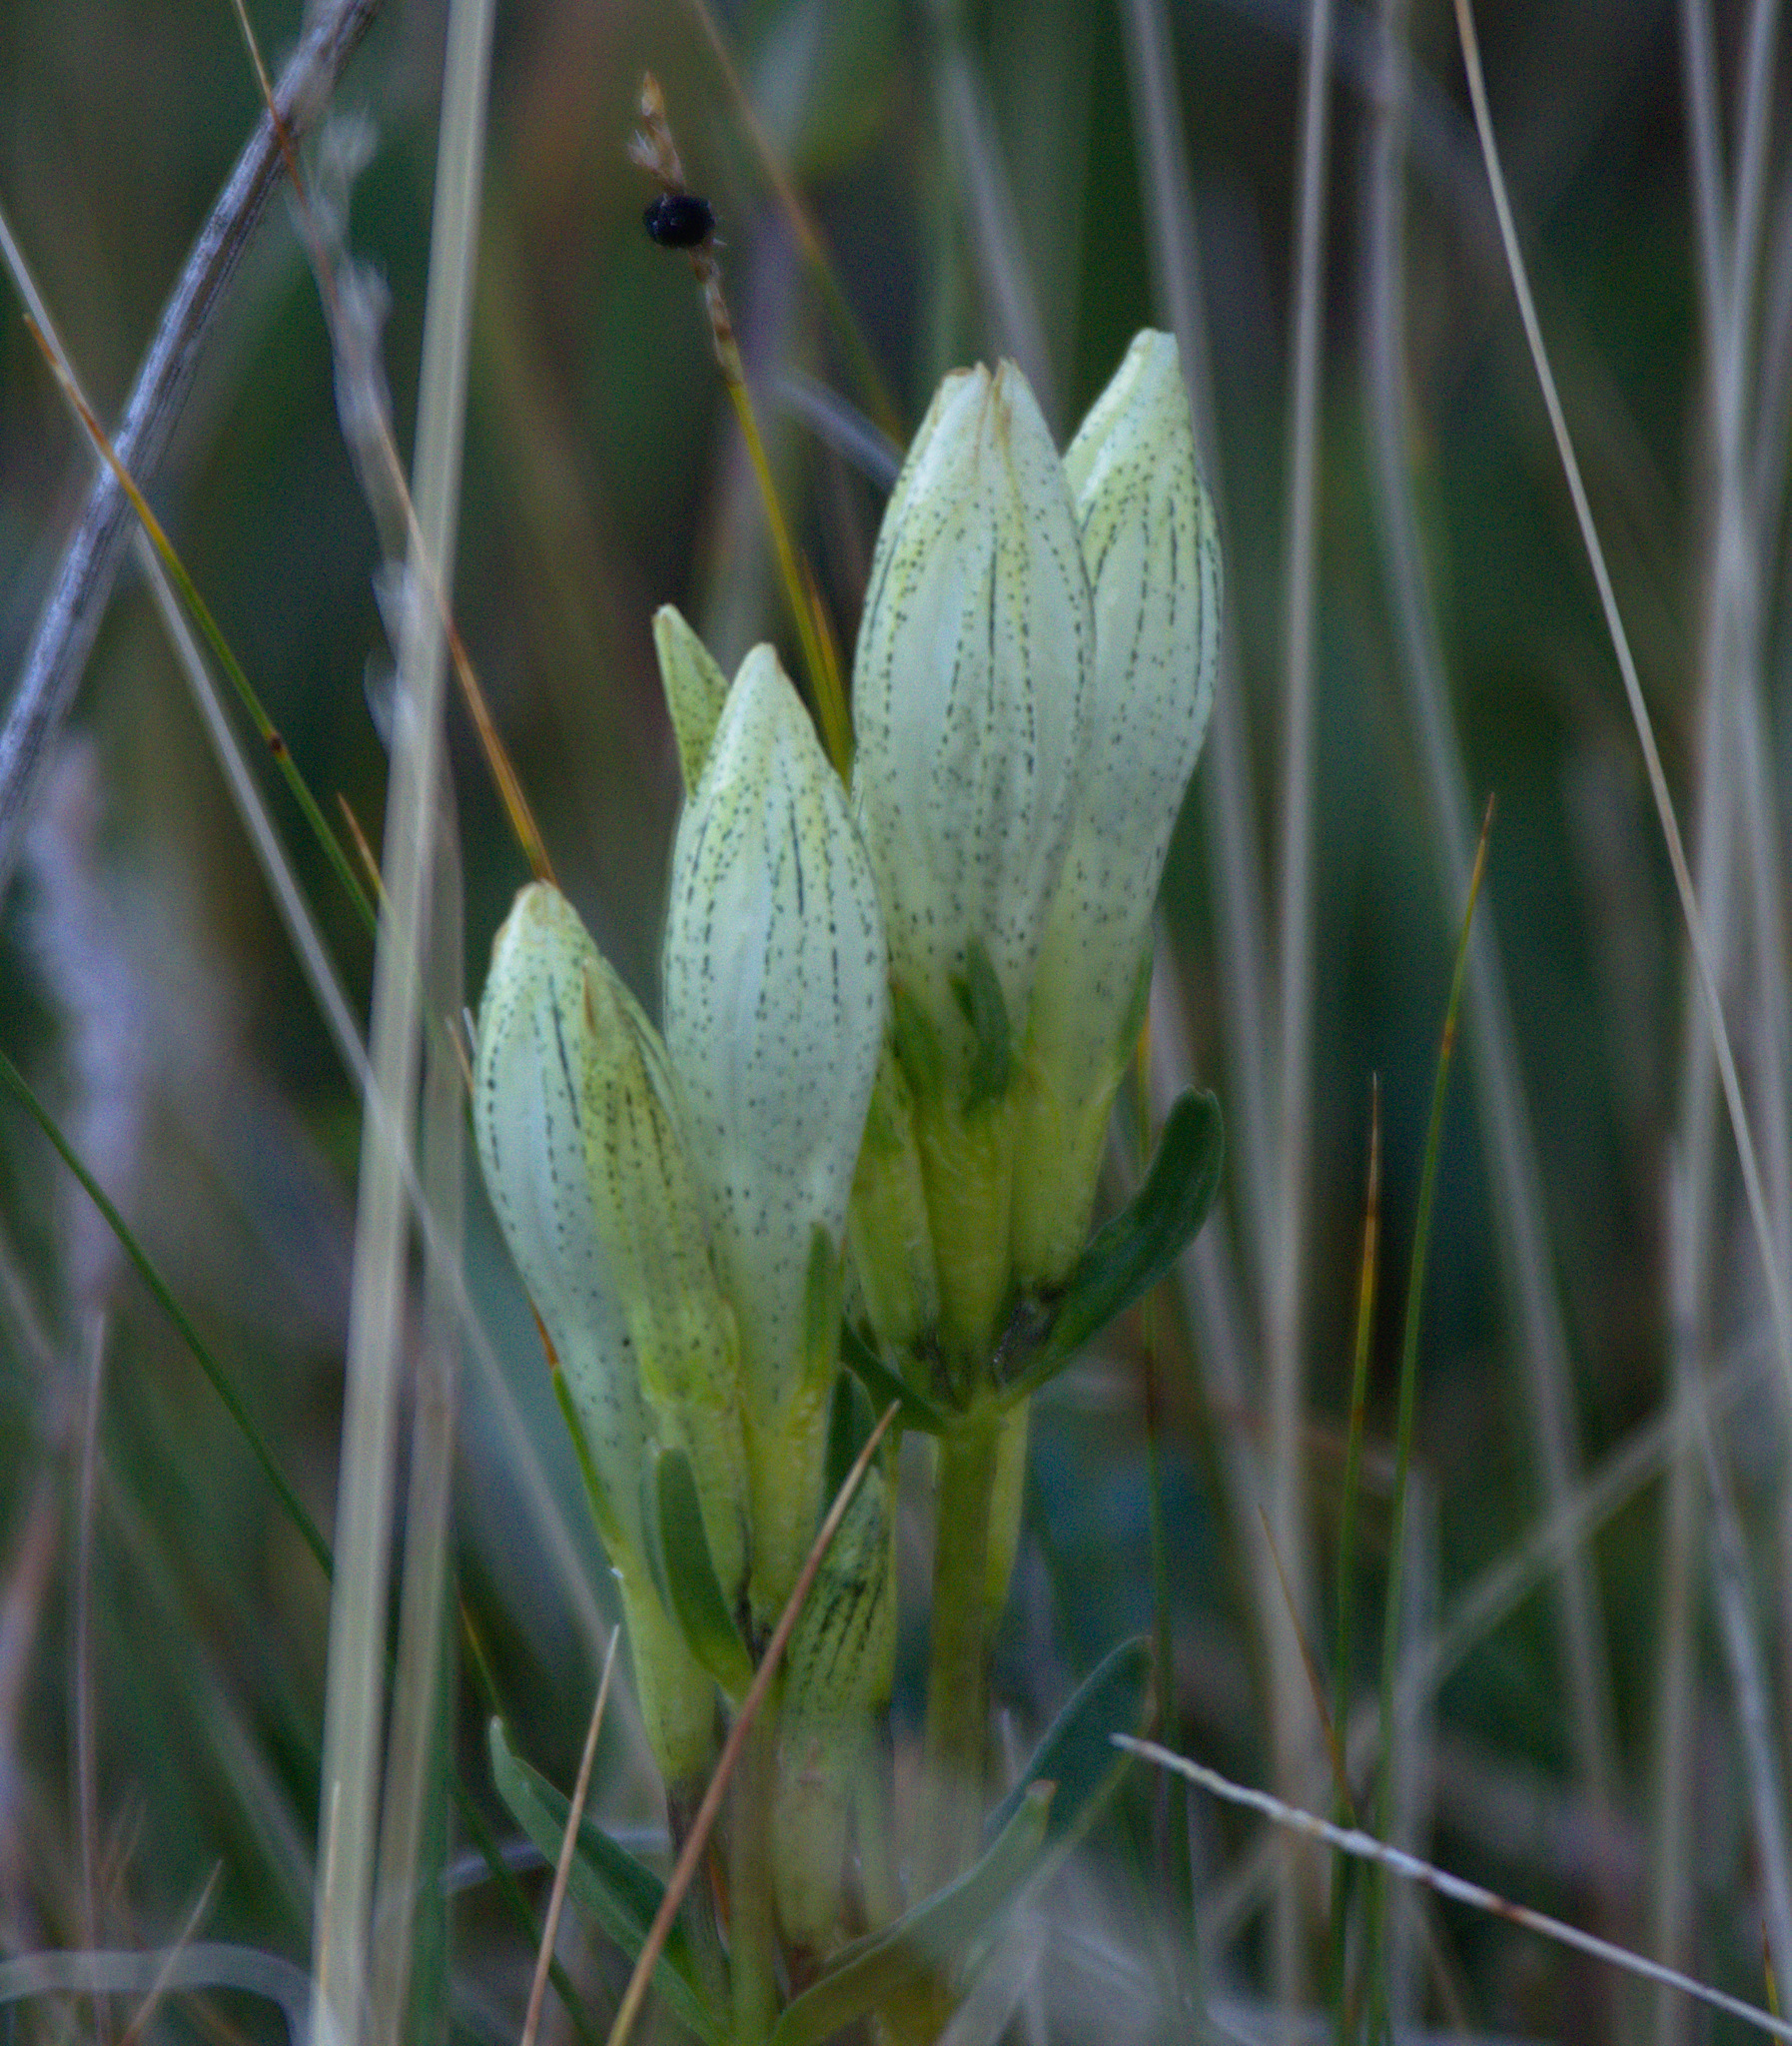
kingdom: Plantae
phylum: Tracheophyta
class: Magnoliopsida
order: Gentianales
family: Gentianaceae
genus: Gentiana
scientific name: Gentiana algida
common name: Arctic gentian
